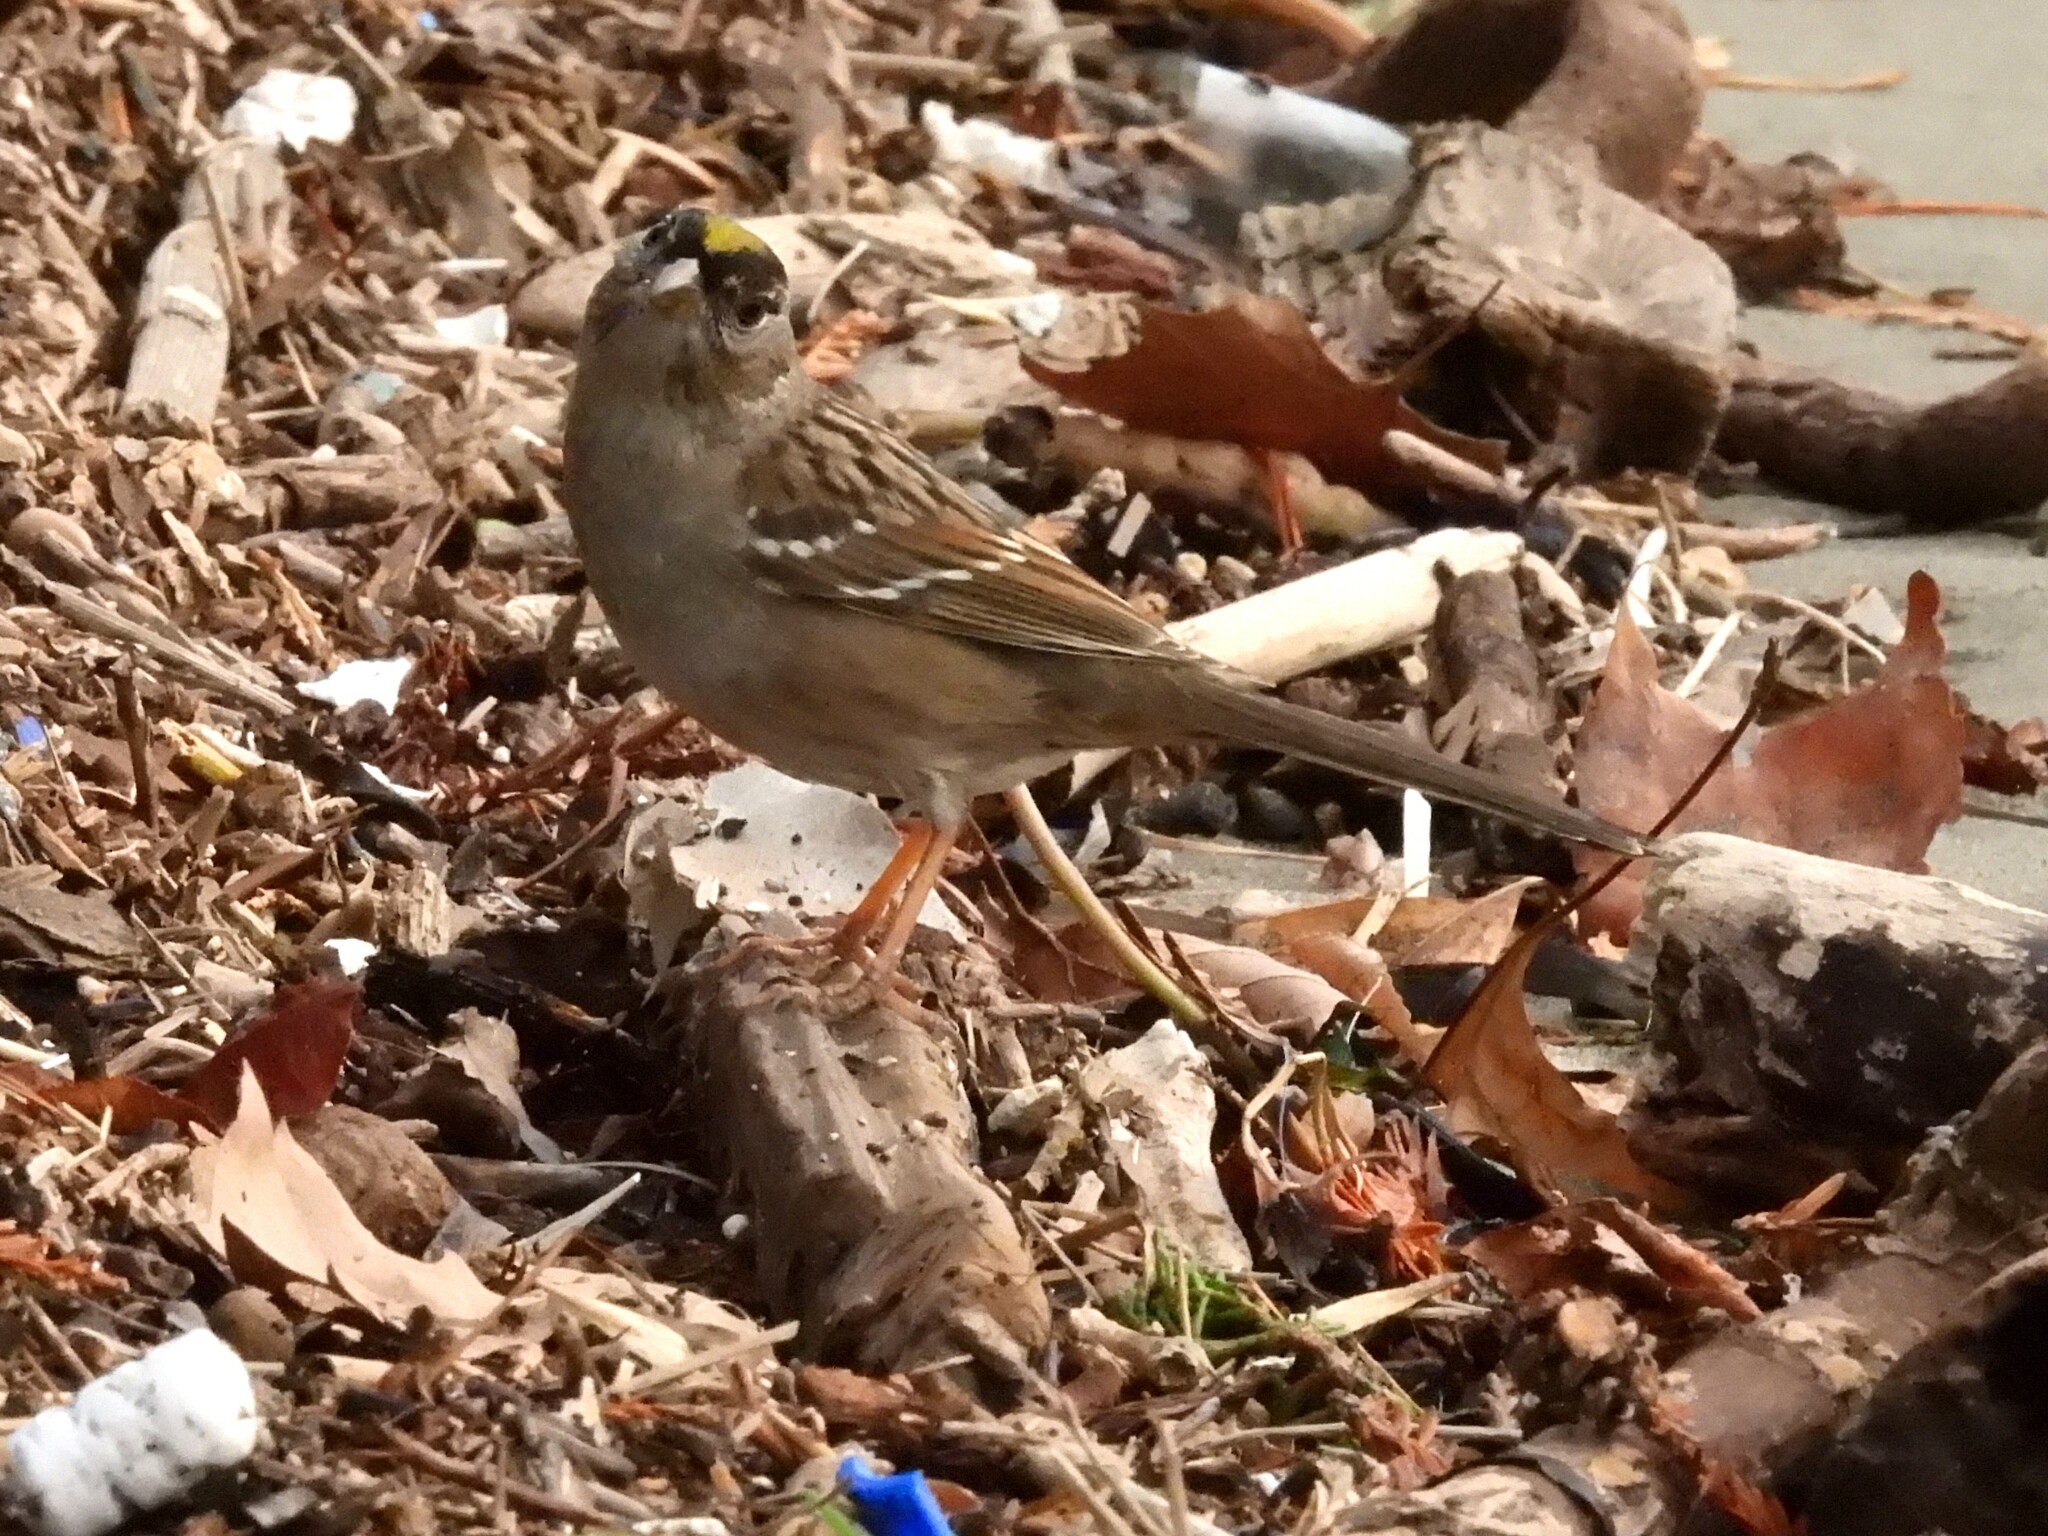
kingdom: Animalia
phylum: Chordata
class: Aves
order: Passeriformes
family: Passerellidae
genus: Zonotrichia
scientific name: Zonotrichia atricapilla
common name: Golden-crowned sparrow
